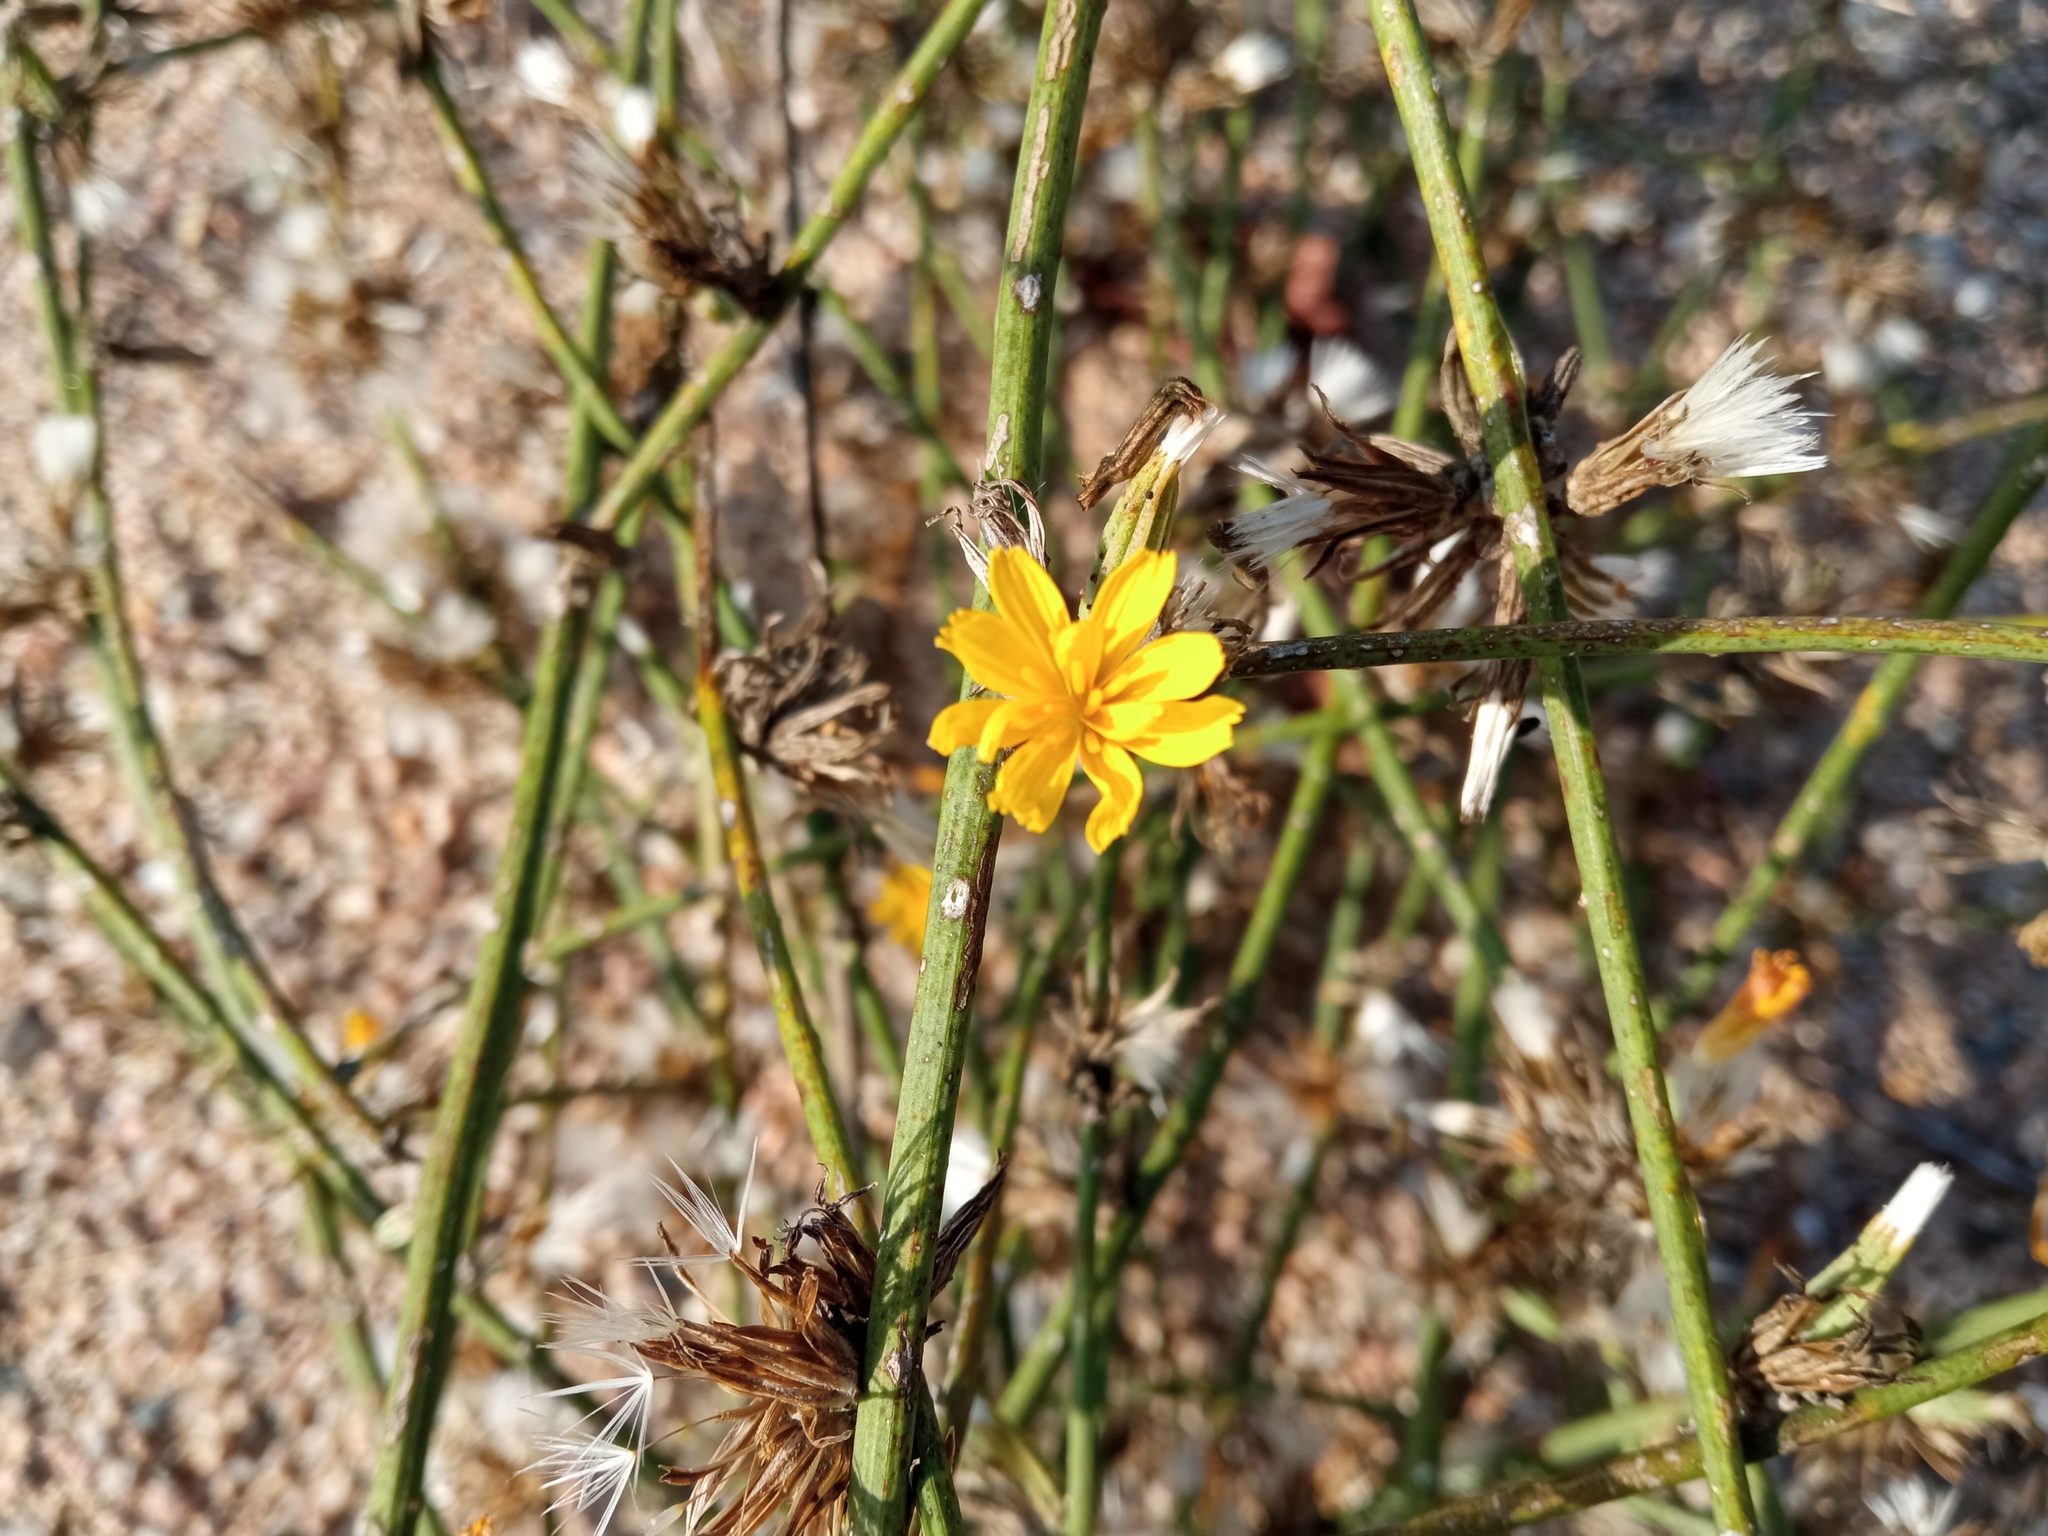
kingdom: Plantae
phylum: Tracheophyta
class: Magnoliopsida
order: Asterales
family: Asteraceae
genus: Chondrilla
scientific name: Chondrilla juncea
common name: Skeleton weed
